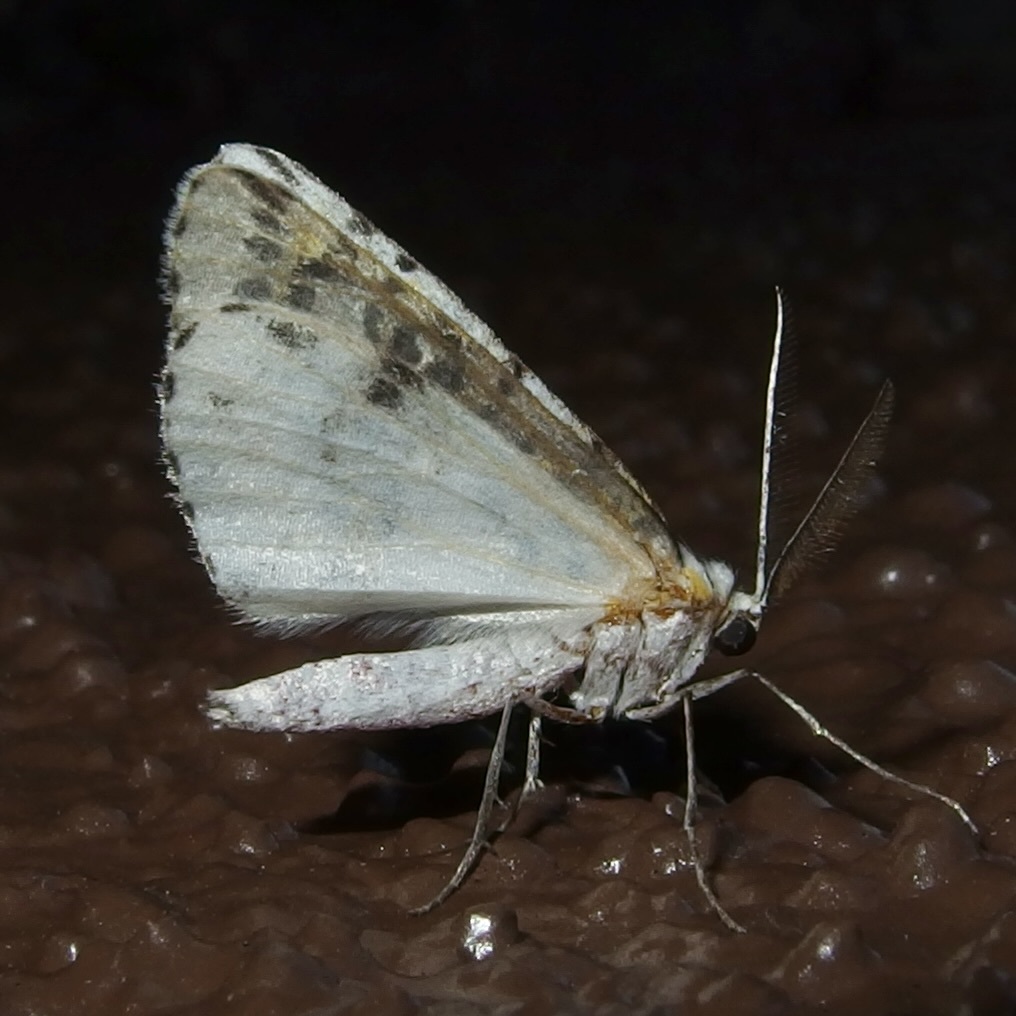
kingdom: Animalia
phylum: Arthropoda
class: Insecta
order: Lepidoptera
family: Geometridae
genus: Philtraea
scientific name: Philtraea elegantaria
